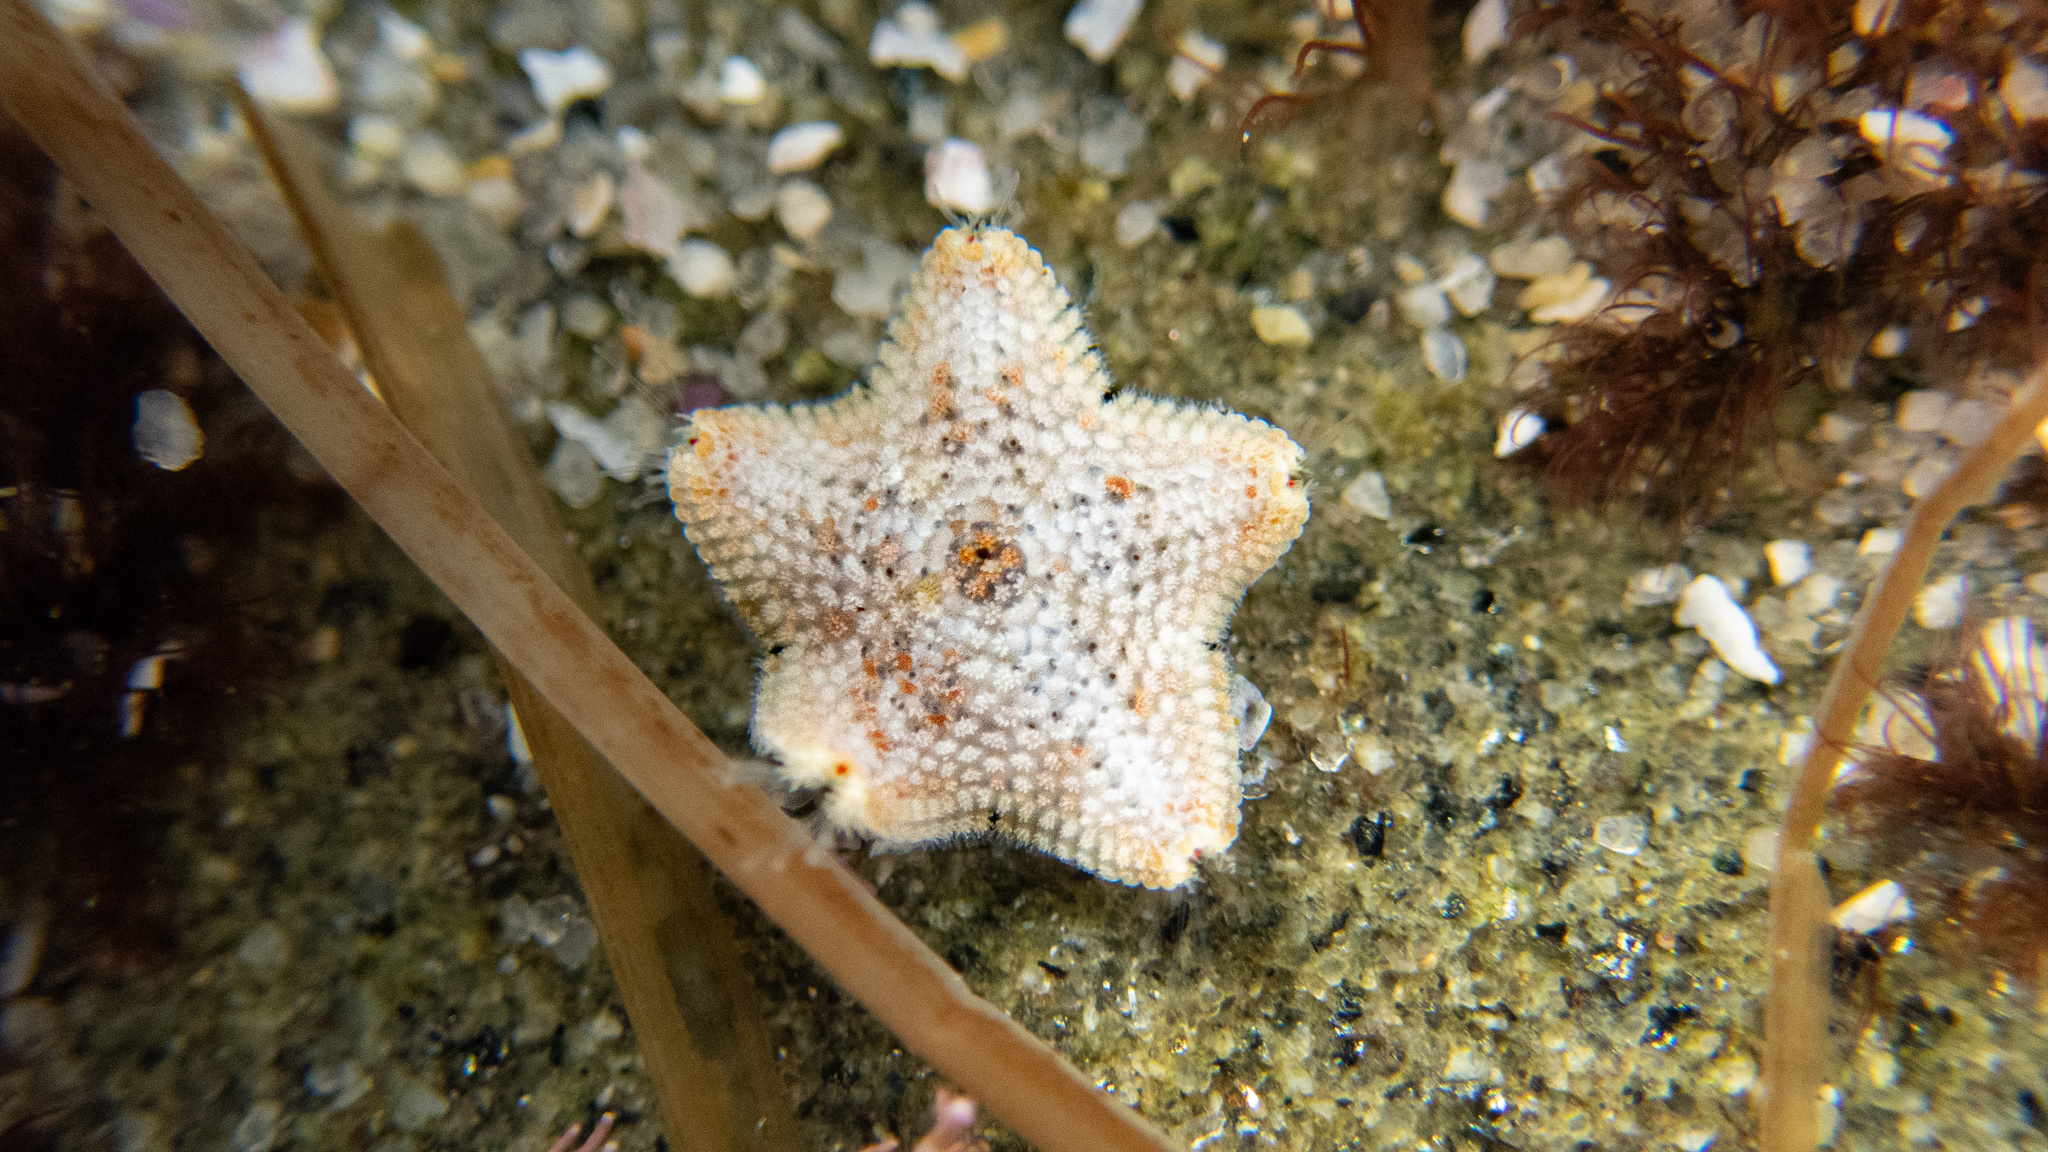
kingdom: Animalia
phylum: Echinodermata
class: Asteroidea
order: Valvatida
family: Asterinidae
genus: Patiria
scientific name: Patiria miniata
